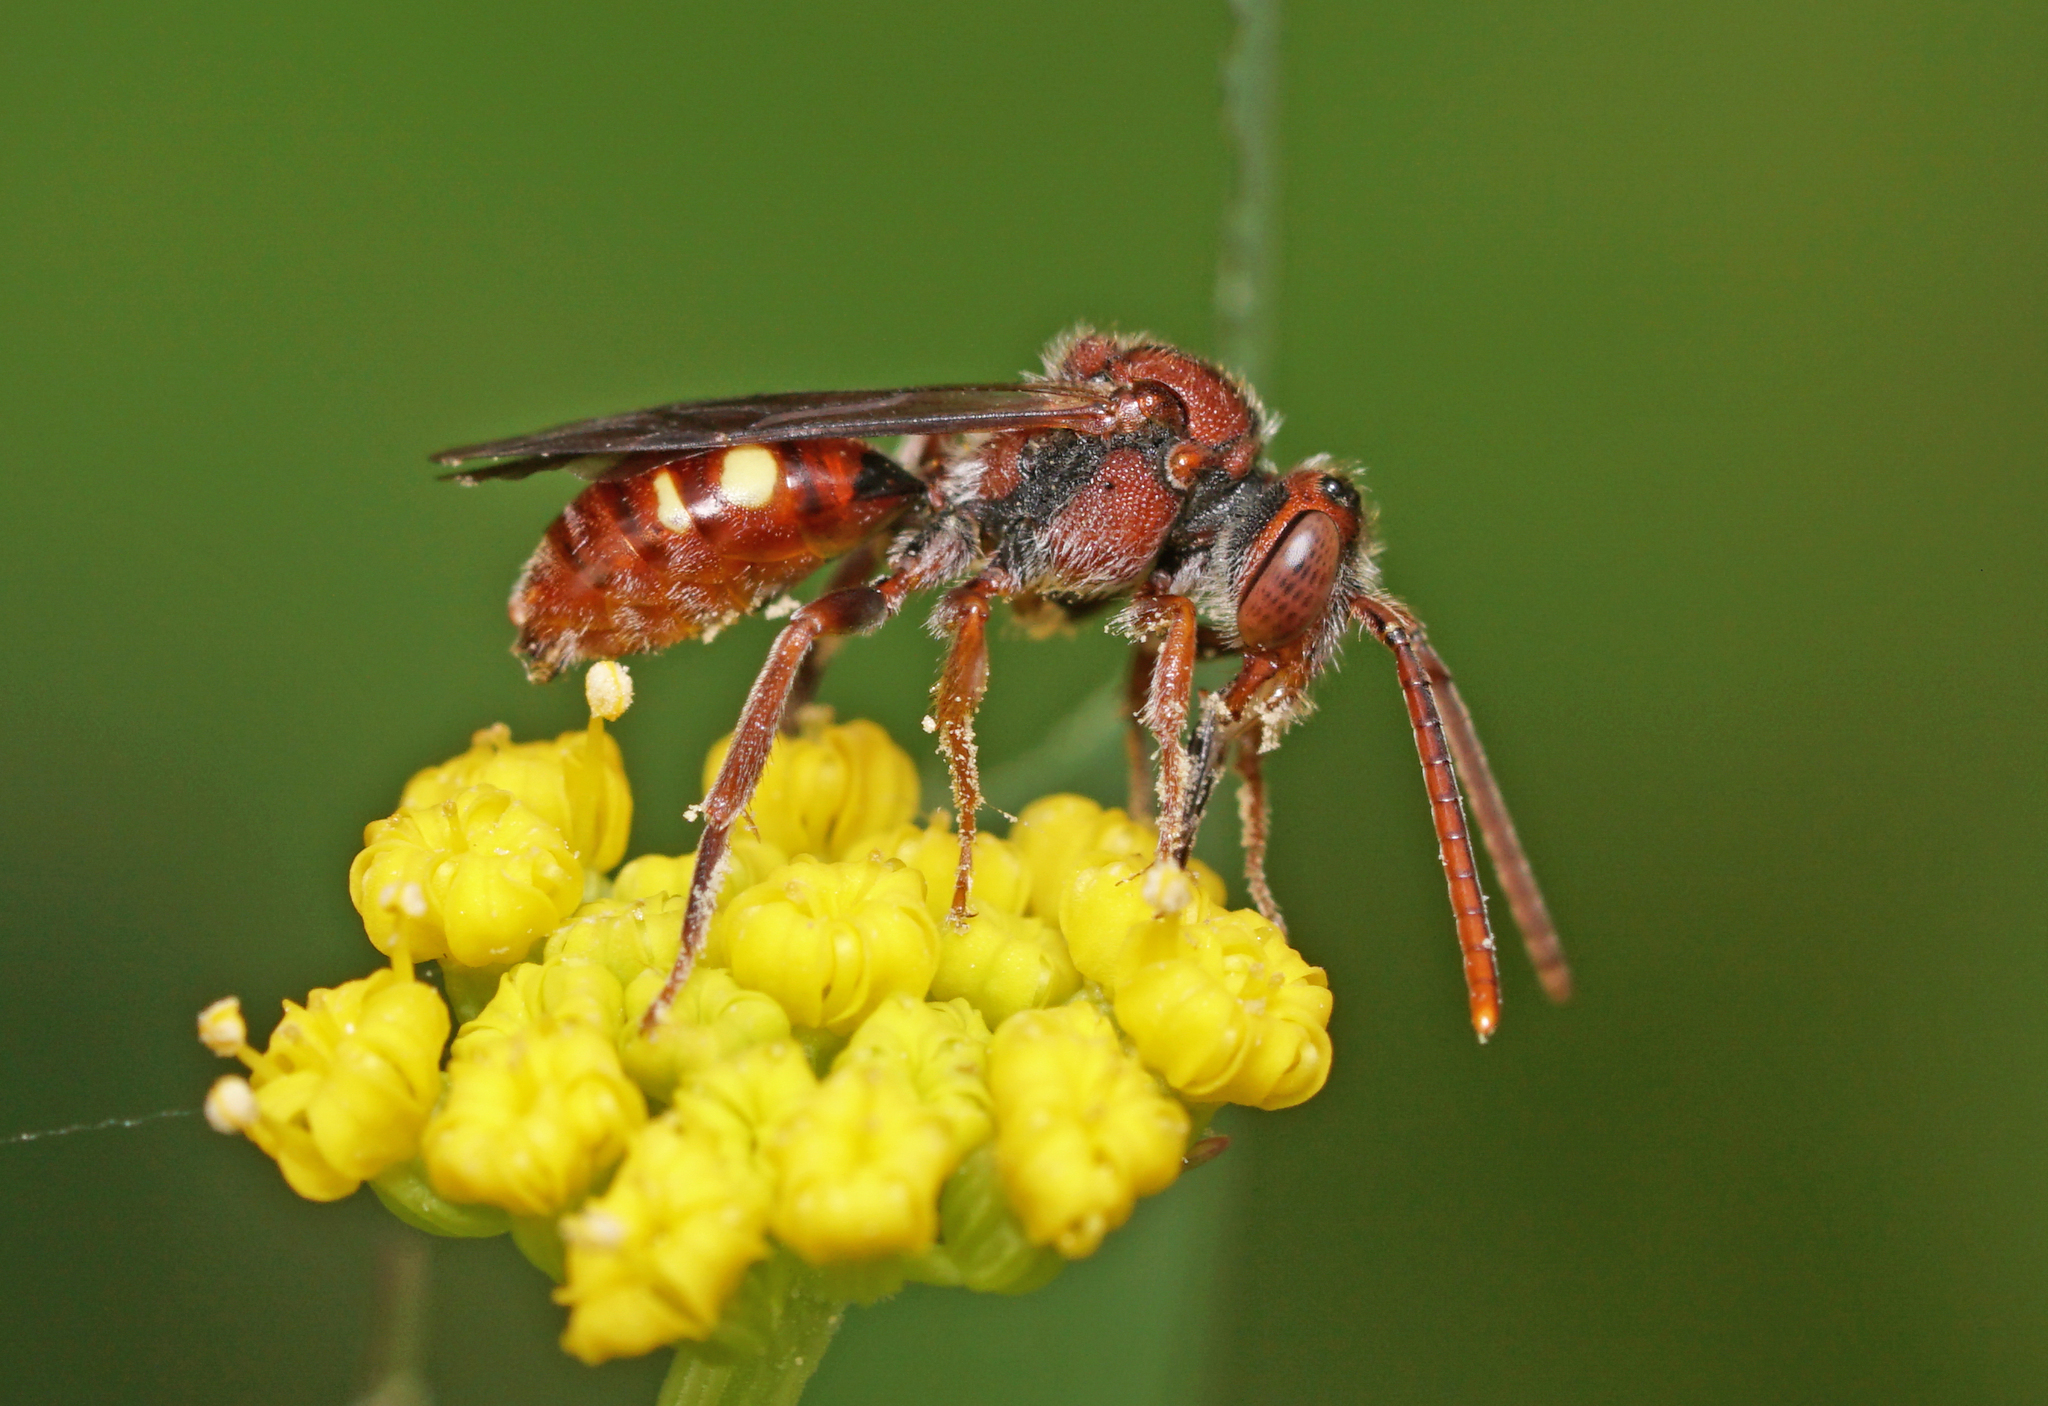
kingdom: Animalia
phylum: Arthropoda
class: Insecta
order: Hymenoptera
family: Apidae
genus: Nomada
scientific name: Nomada
